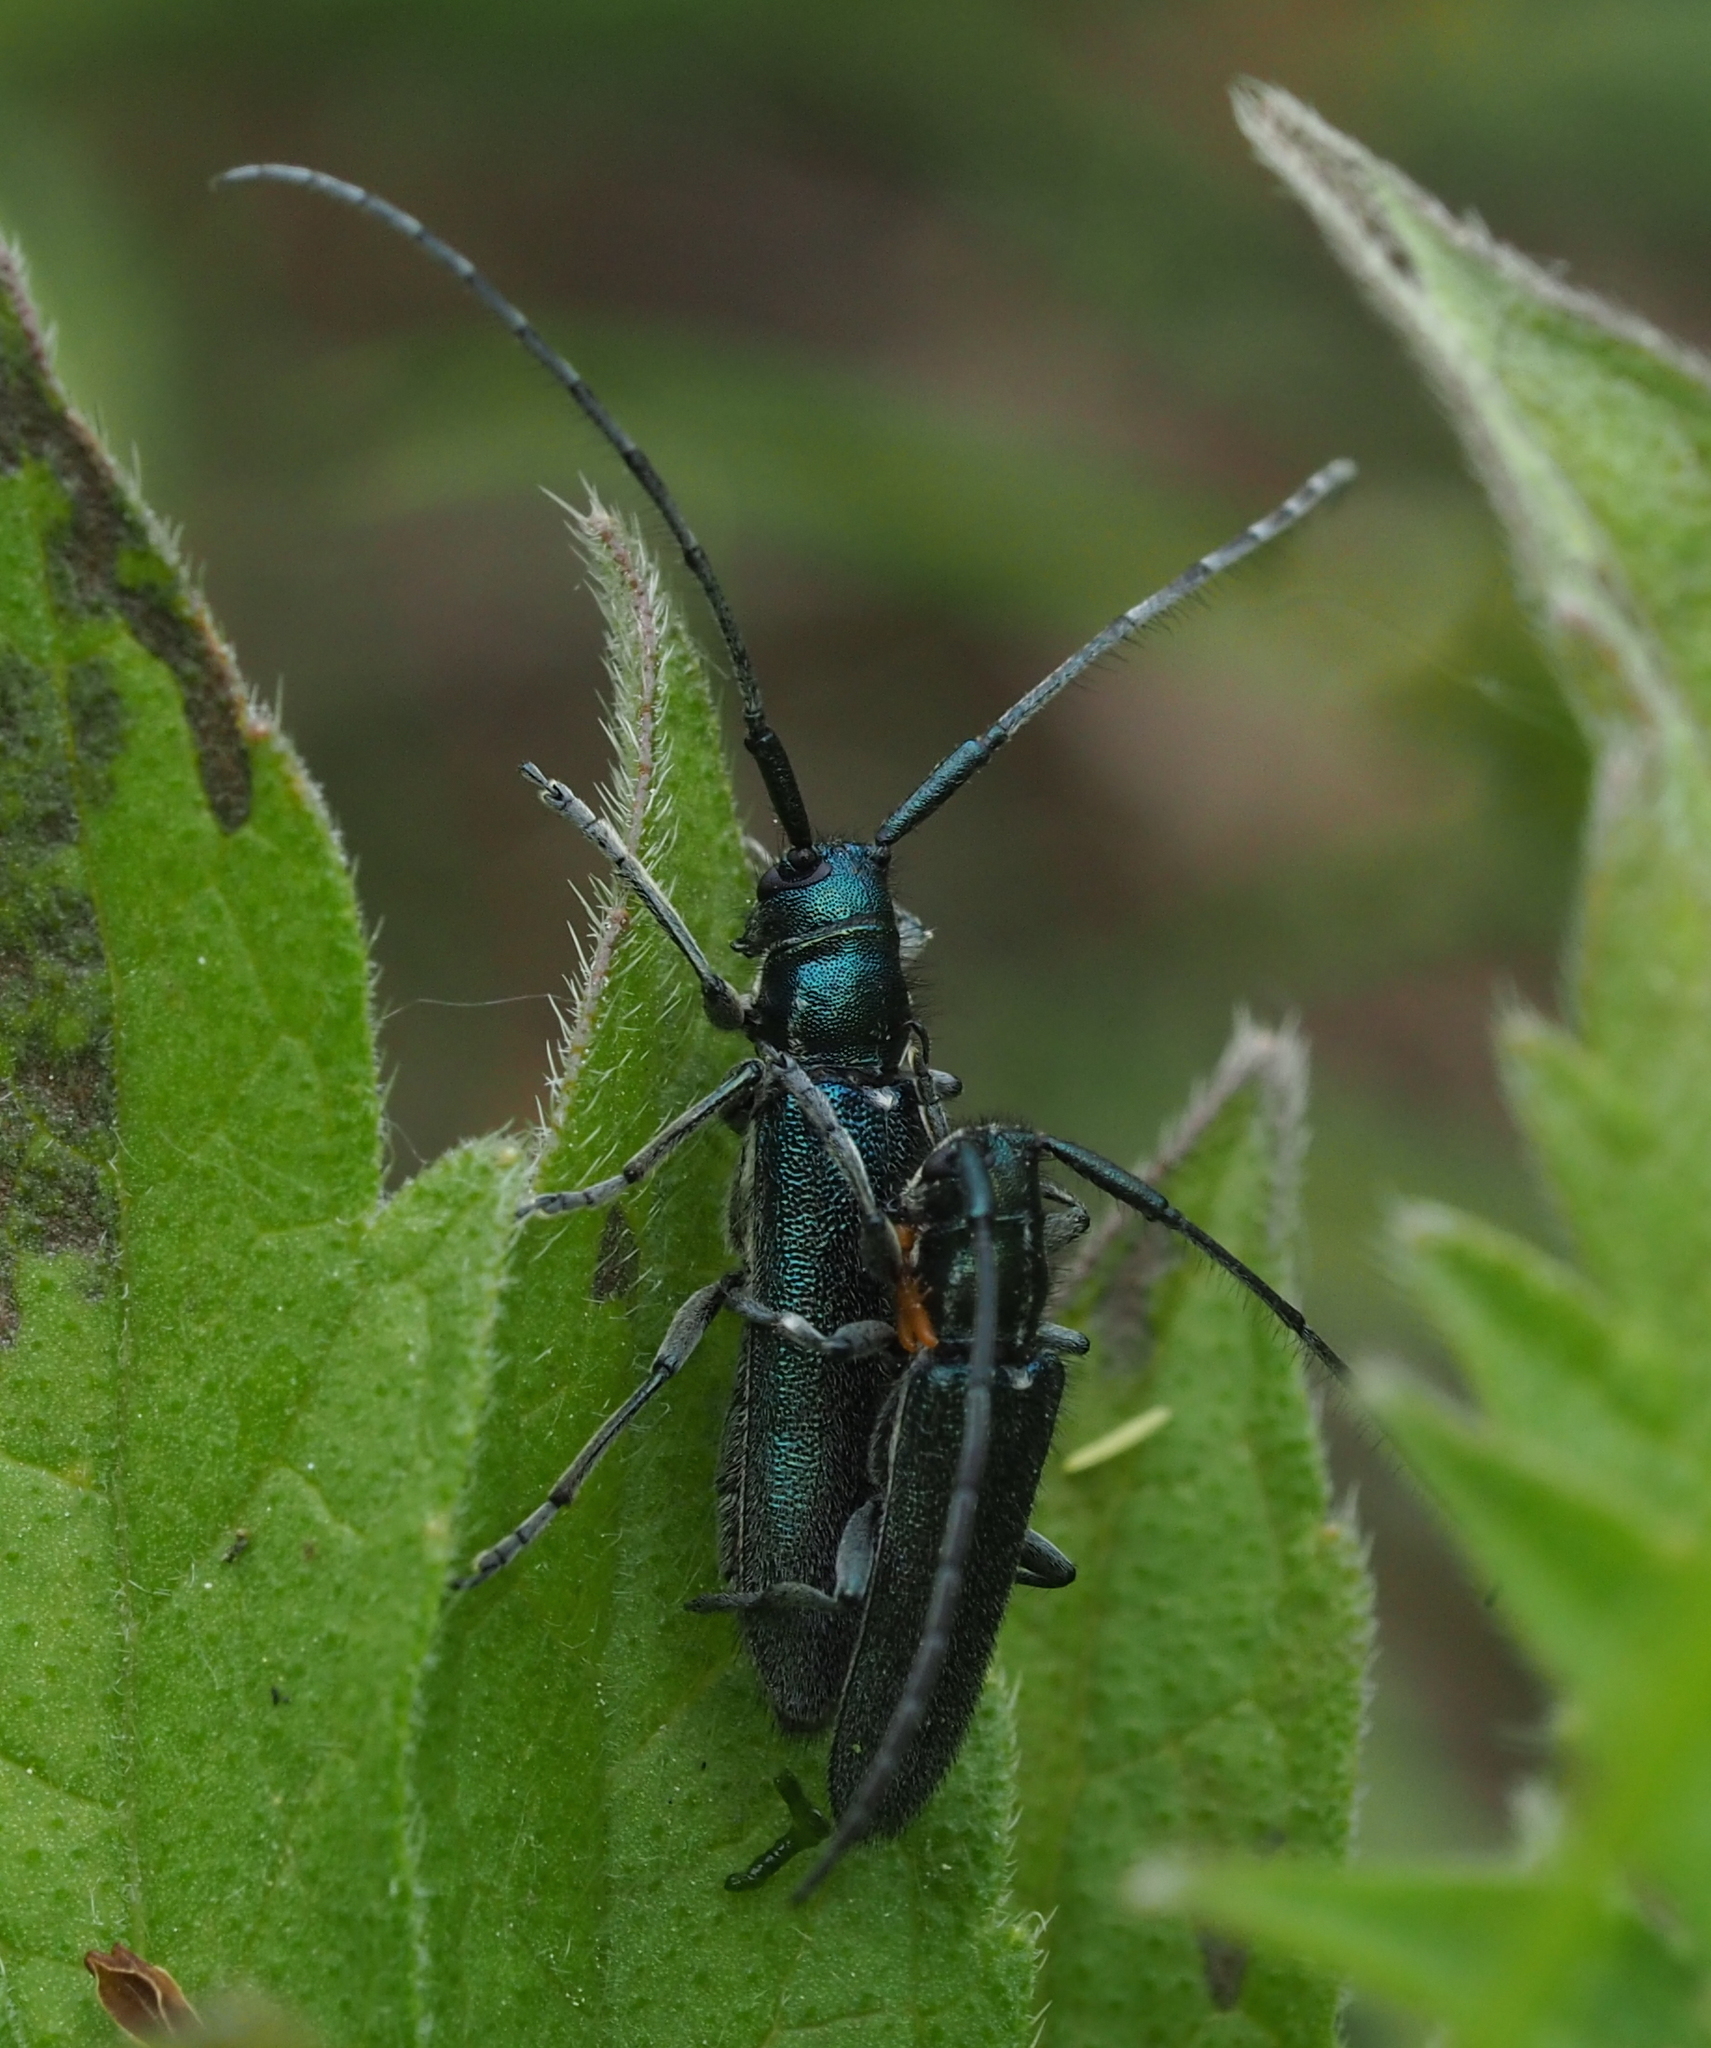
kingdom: Animalia
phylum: Arthropoda
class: Insecta
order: Coleoptera
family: Cerambycidae
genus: Agapanthia
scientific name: Agapanthia intermedia
